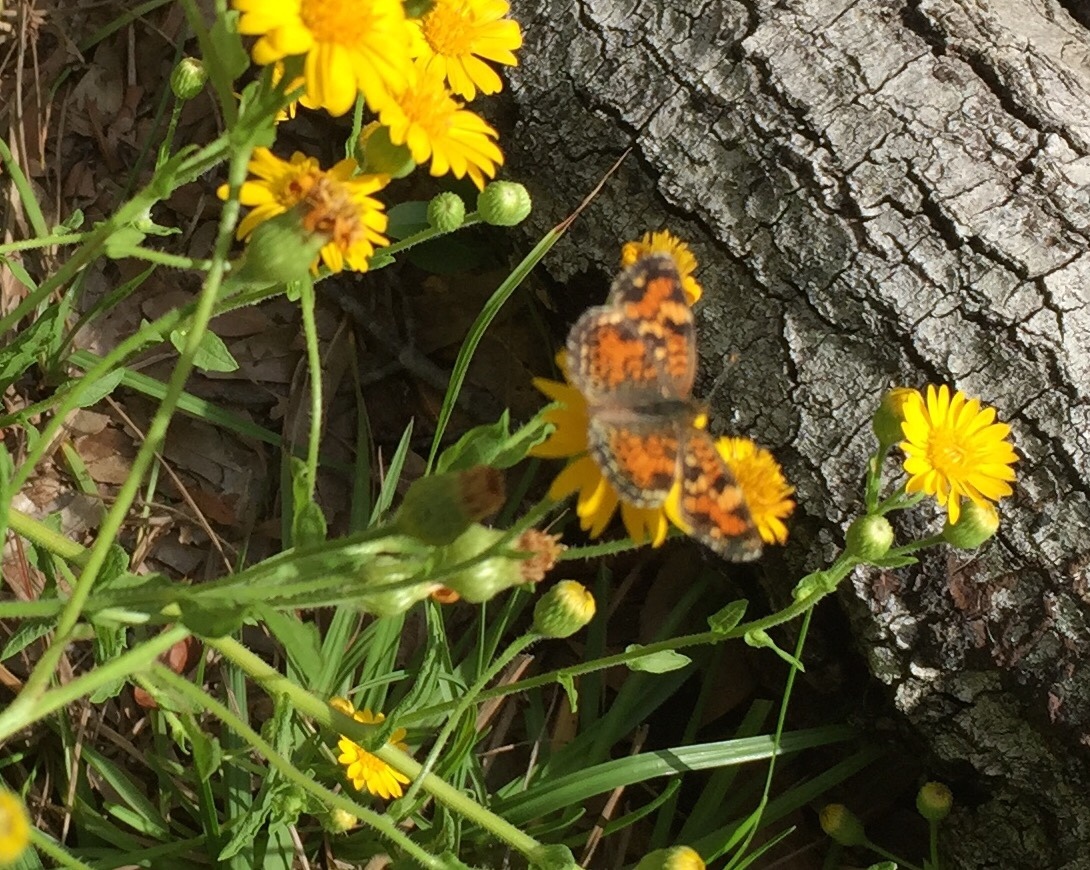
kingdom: Animalia
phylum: Arthropoda
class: Insecta
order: Lepidoptera
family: Nymphalidae
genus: Phyciodes
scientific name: Phyciodes phaon
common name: Phaon crescent
